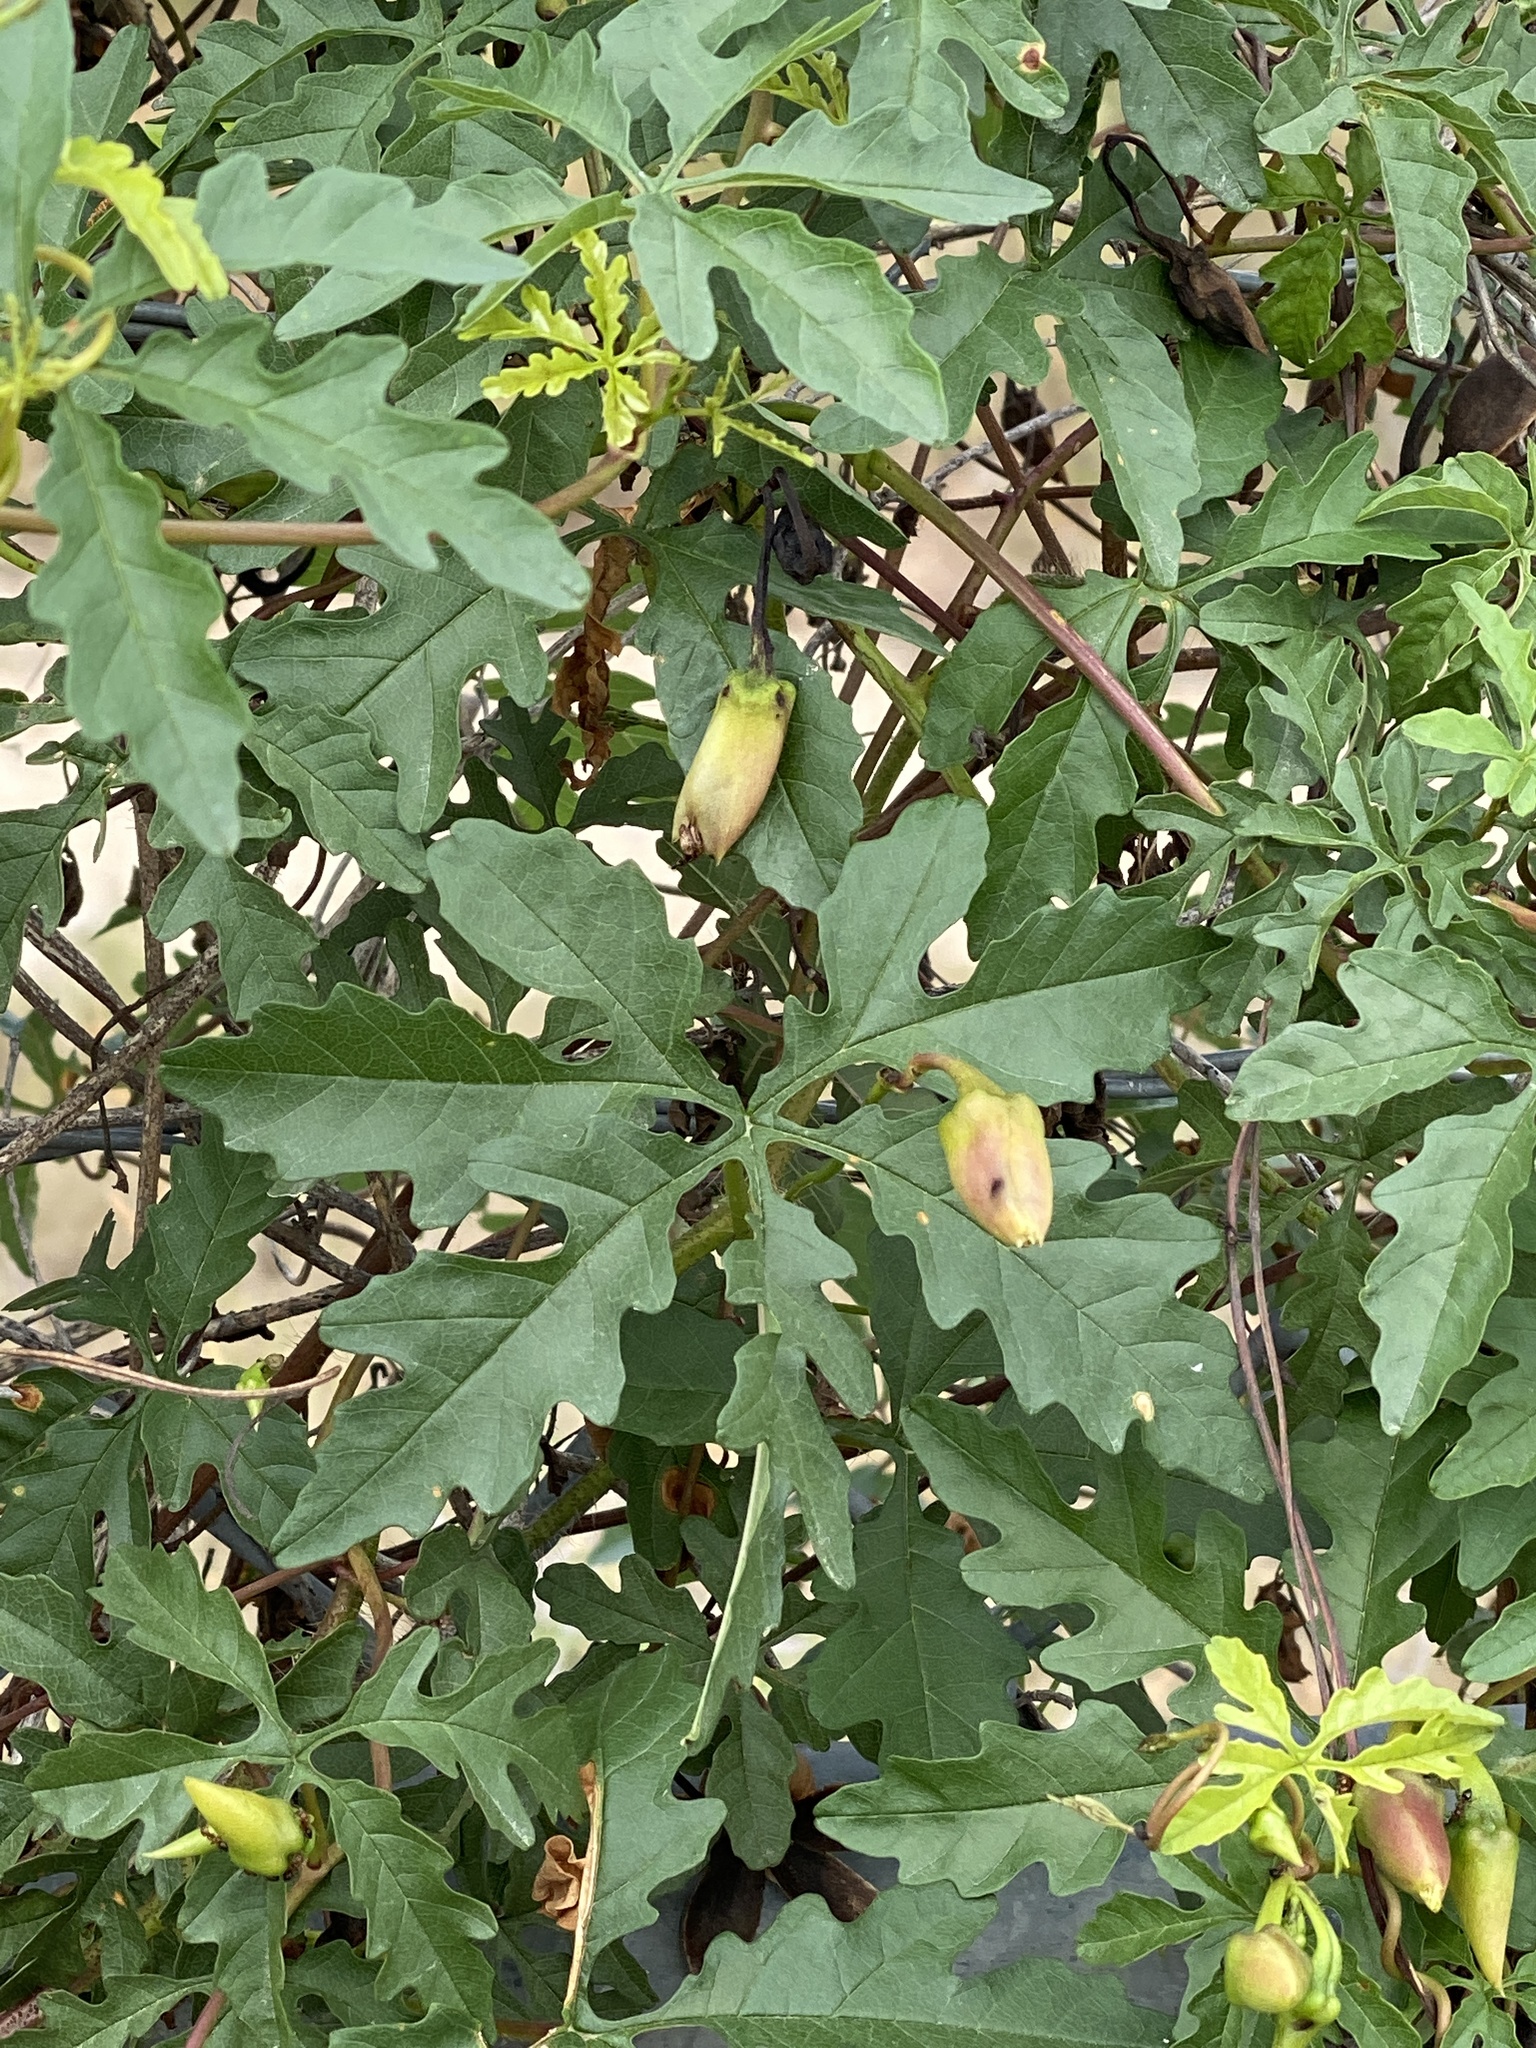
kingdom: Plantae
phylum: Tracheophyta
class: Magnoliopsida
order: Solanales
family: Convolvulaceae
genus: Distimake
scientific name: Distimake dissectus
